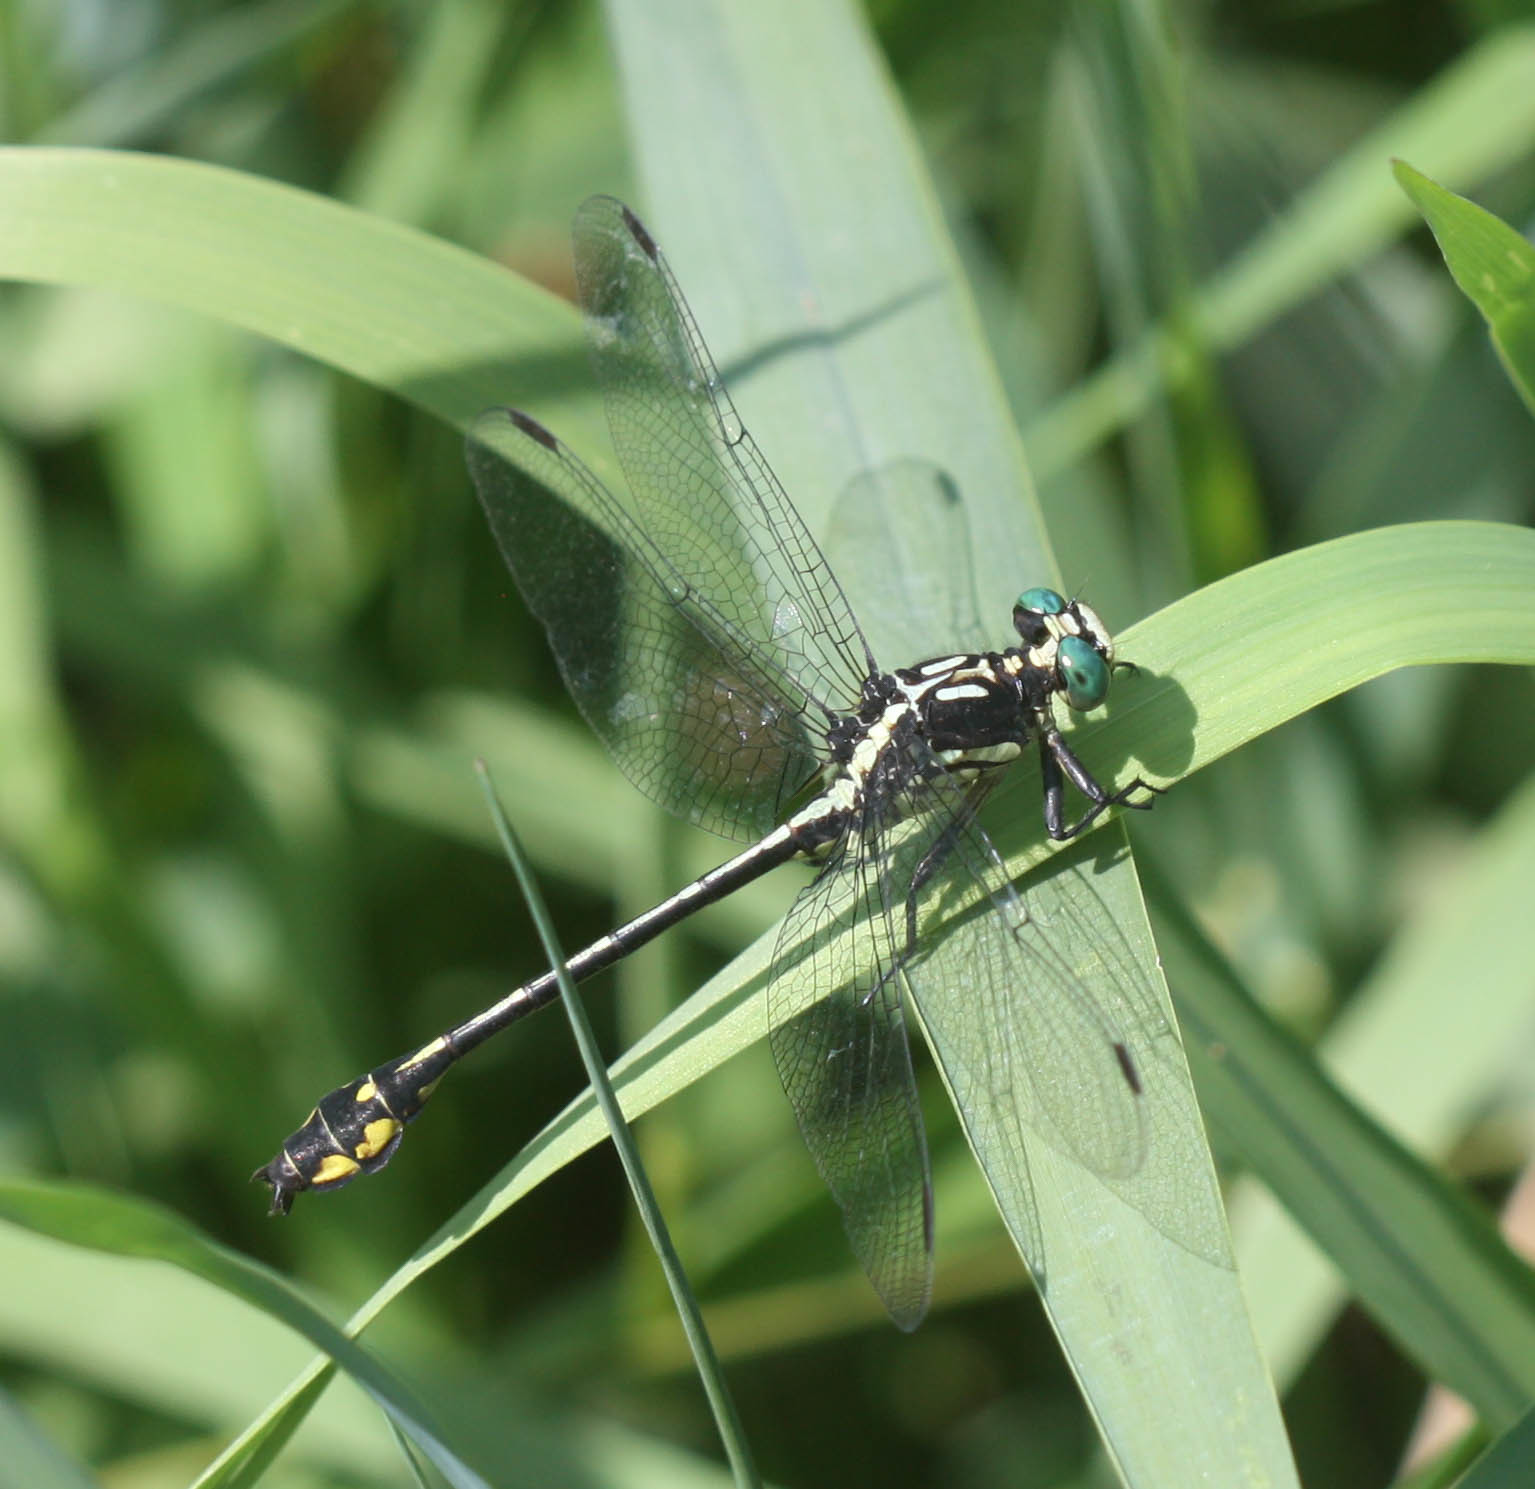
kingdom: Animalia
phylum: Arthropoda
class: Insecta
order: Odonata
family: Gomphidae
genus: Stylurus
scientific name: Stylurus amnicola
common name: Riverine clubtail
